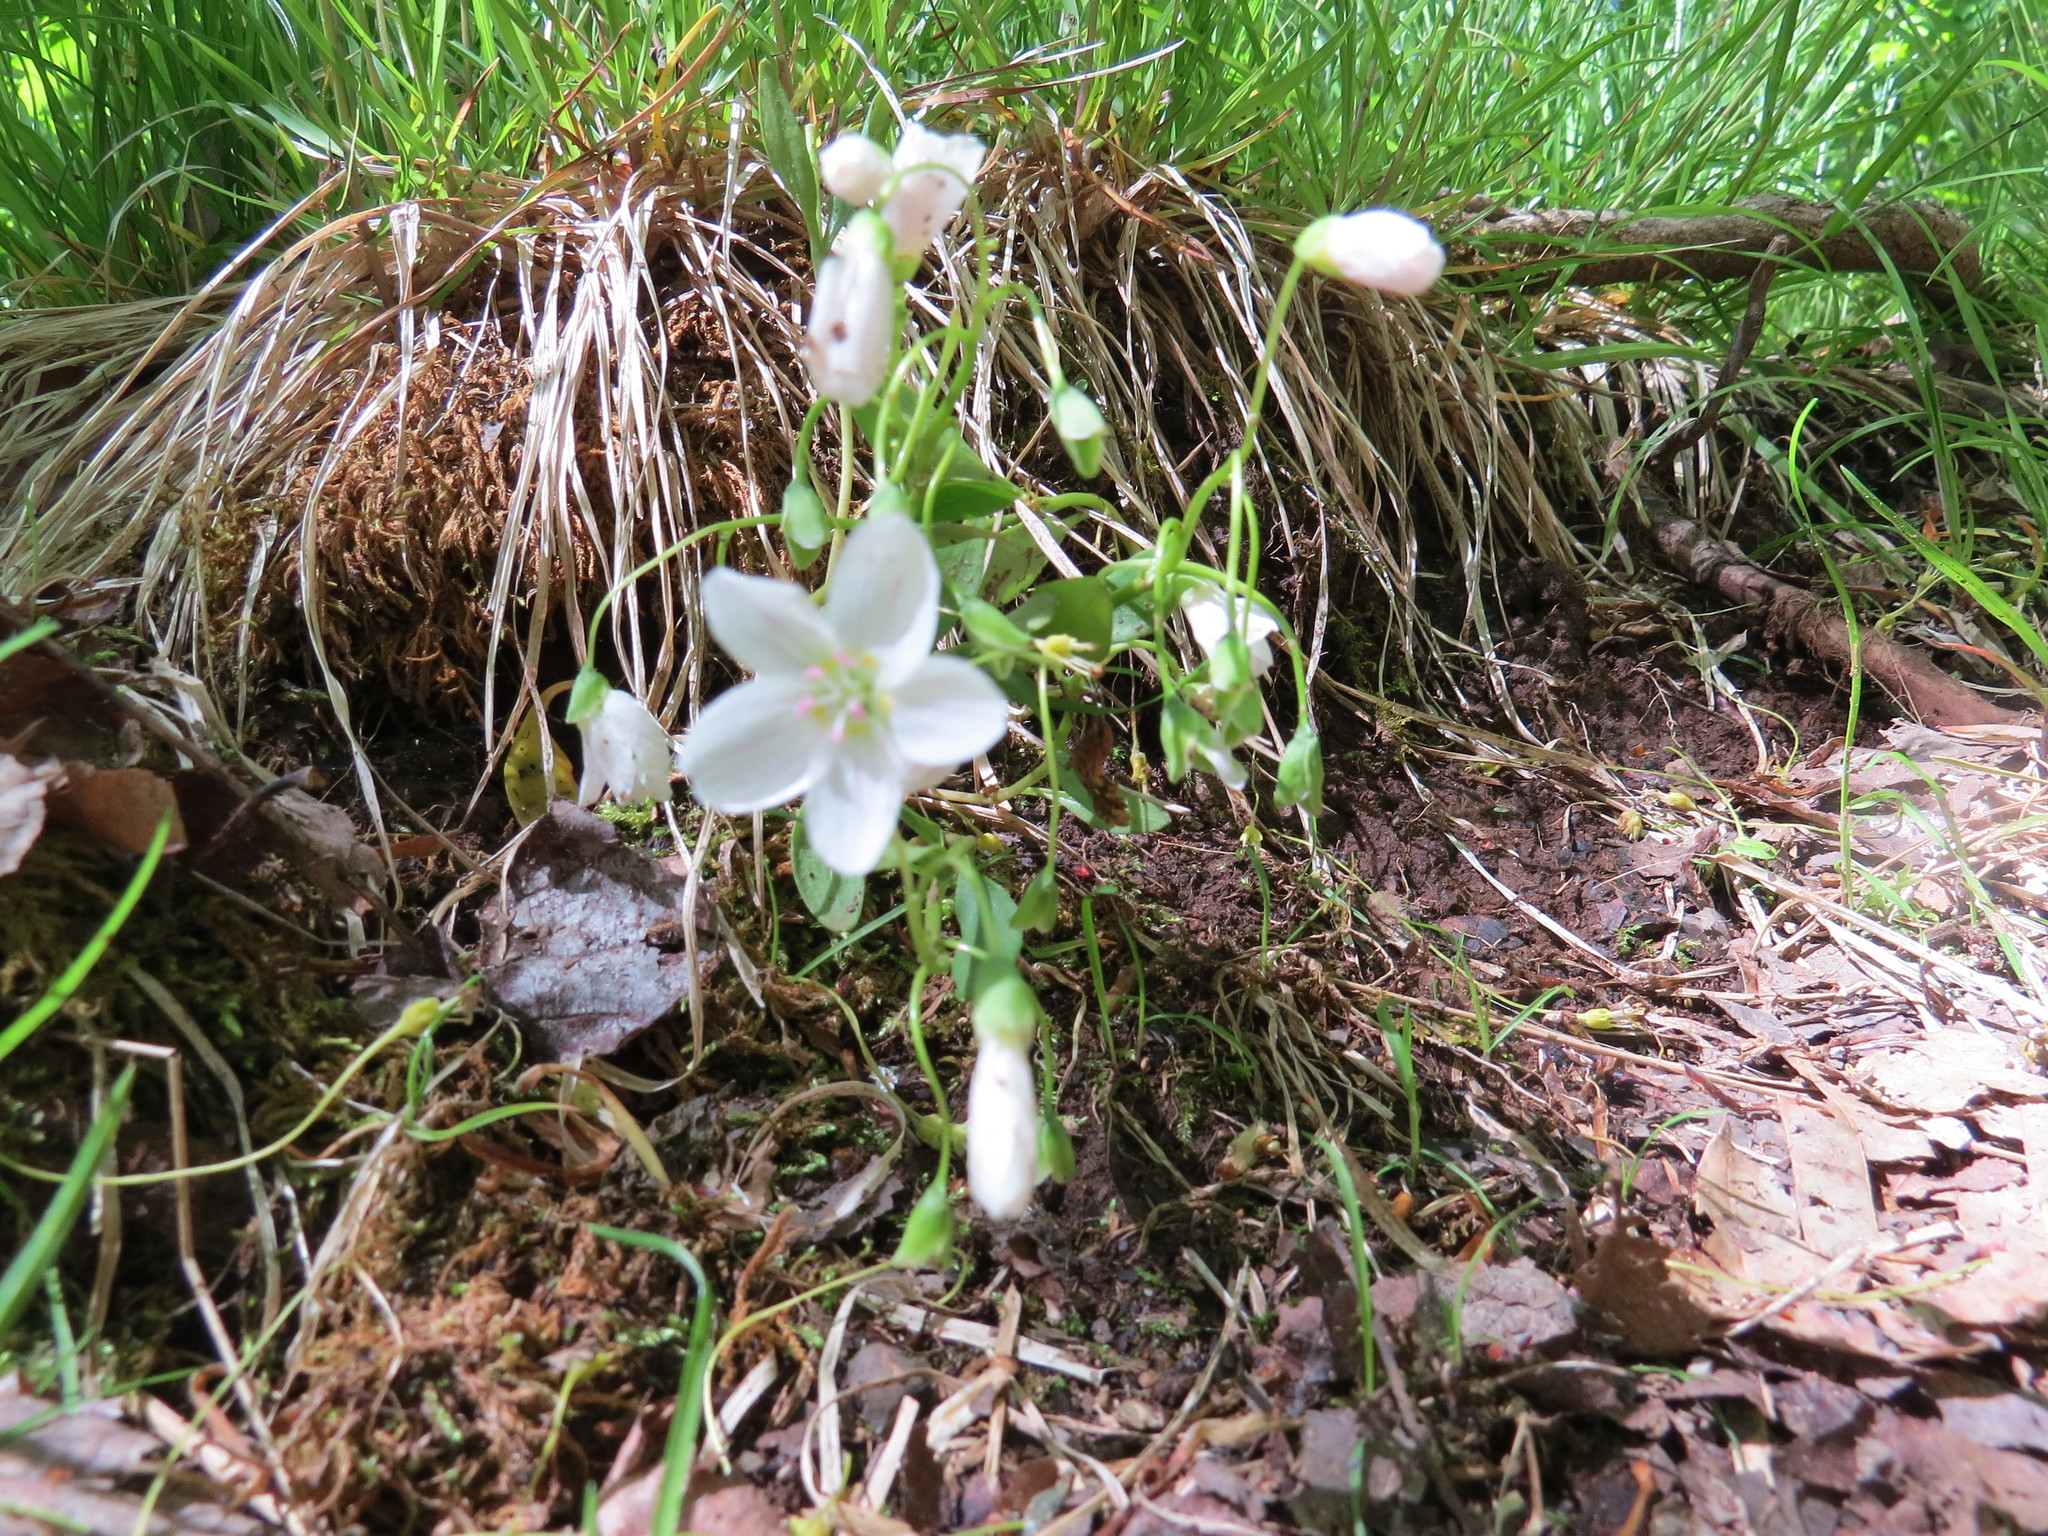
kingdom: Plantae
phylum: Tracheophyta
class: Magnoliopsida
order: Caryophyllales
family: Montiaceae
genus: Claytonia
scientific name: Claytonia caroliniana
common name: Carolina spring beauty
